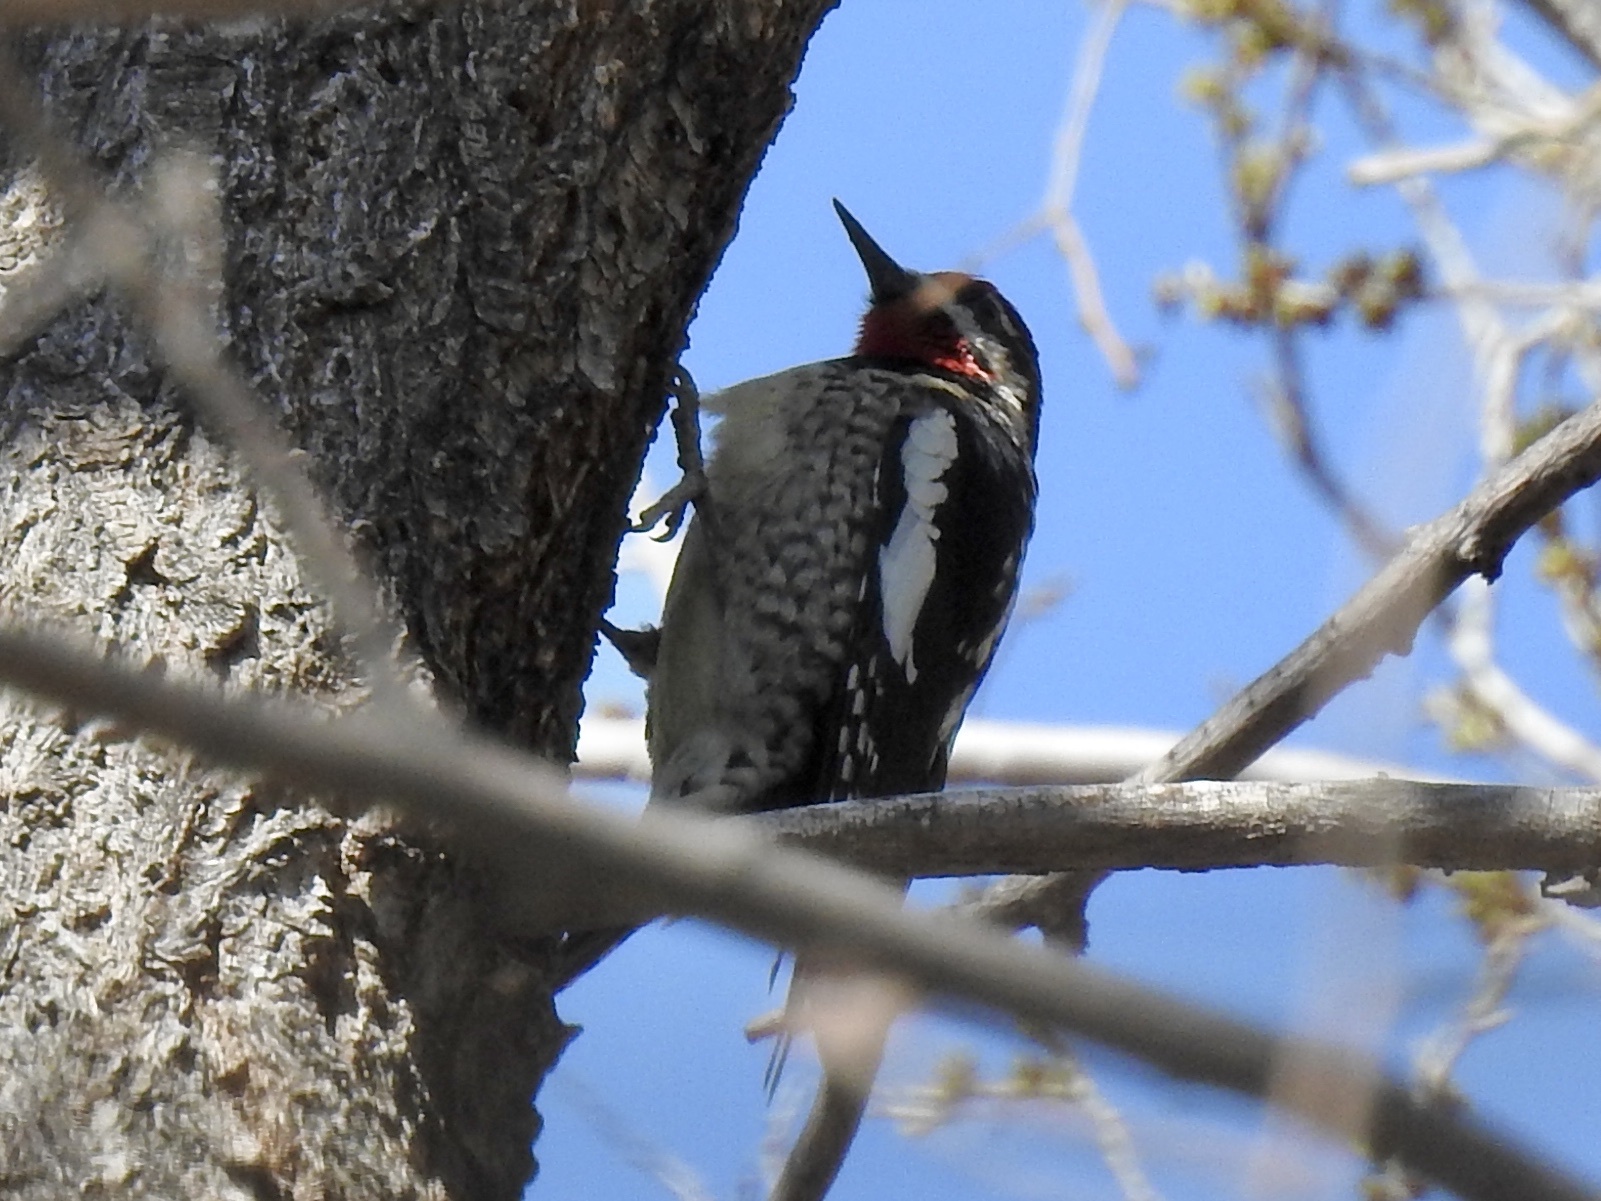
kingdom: Animalia
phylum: Chordata
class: Aves
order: Piciformes
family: Picidae
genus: Sphyrapicus
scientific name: Sphyrapicus nuchalis
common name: Red-naped sapsucker
